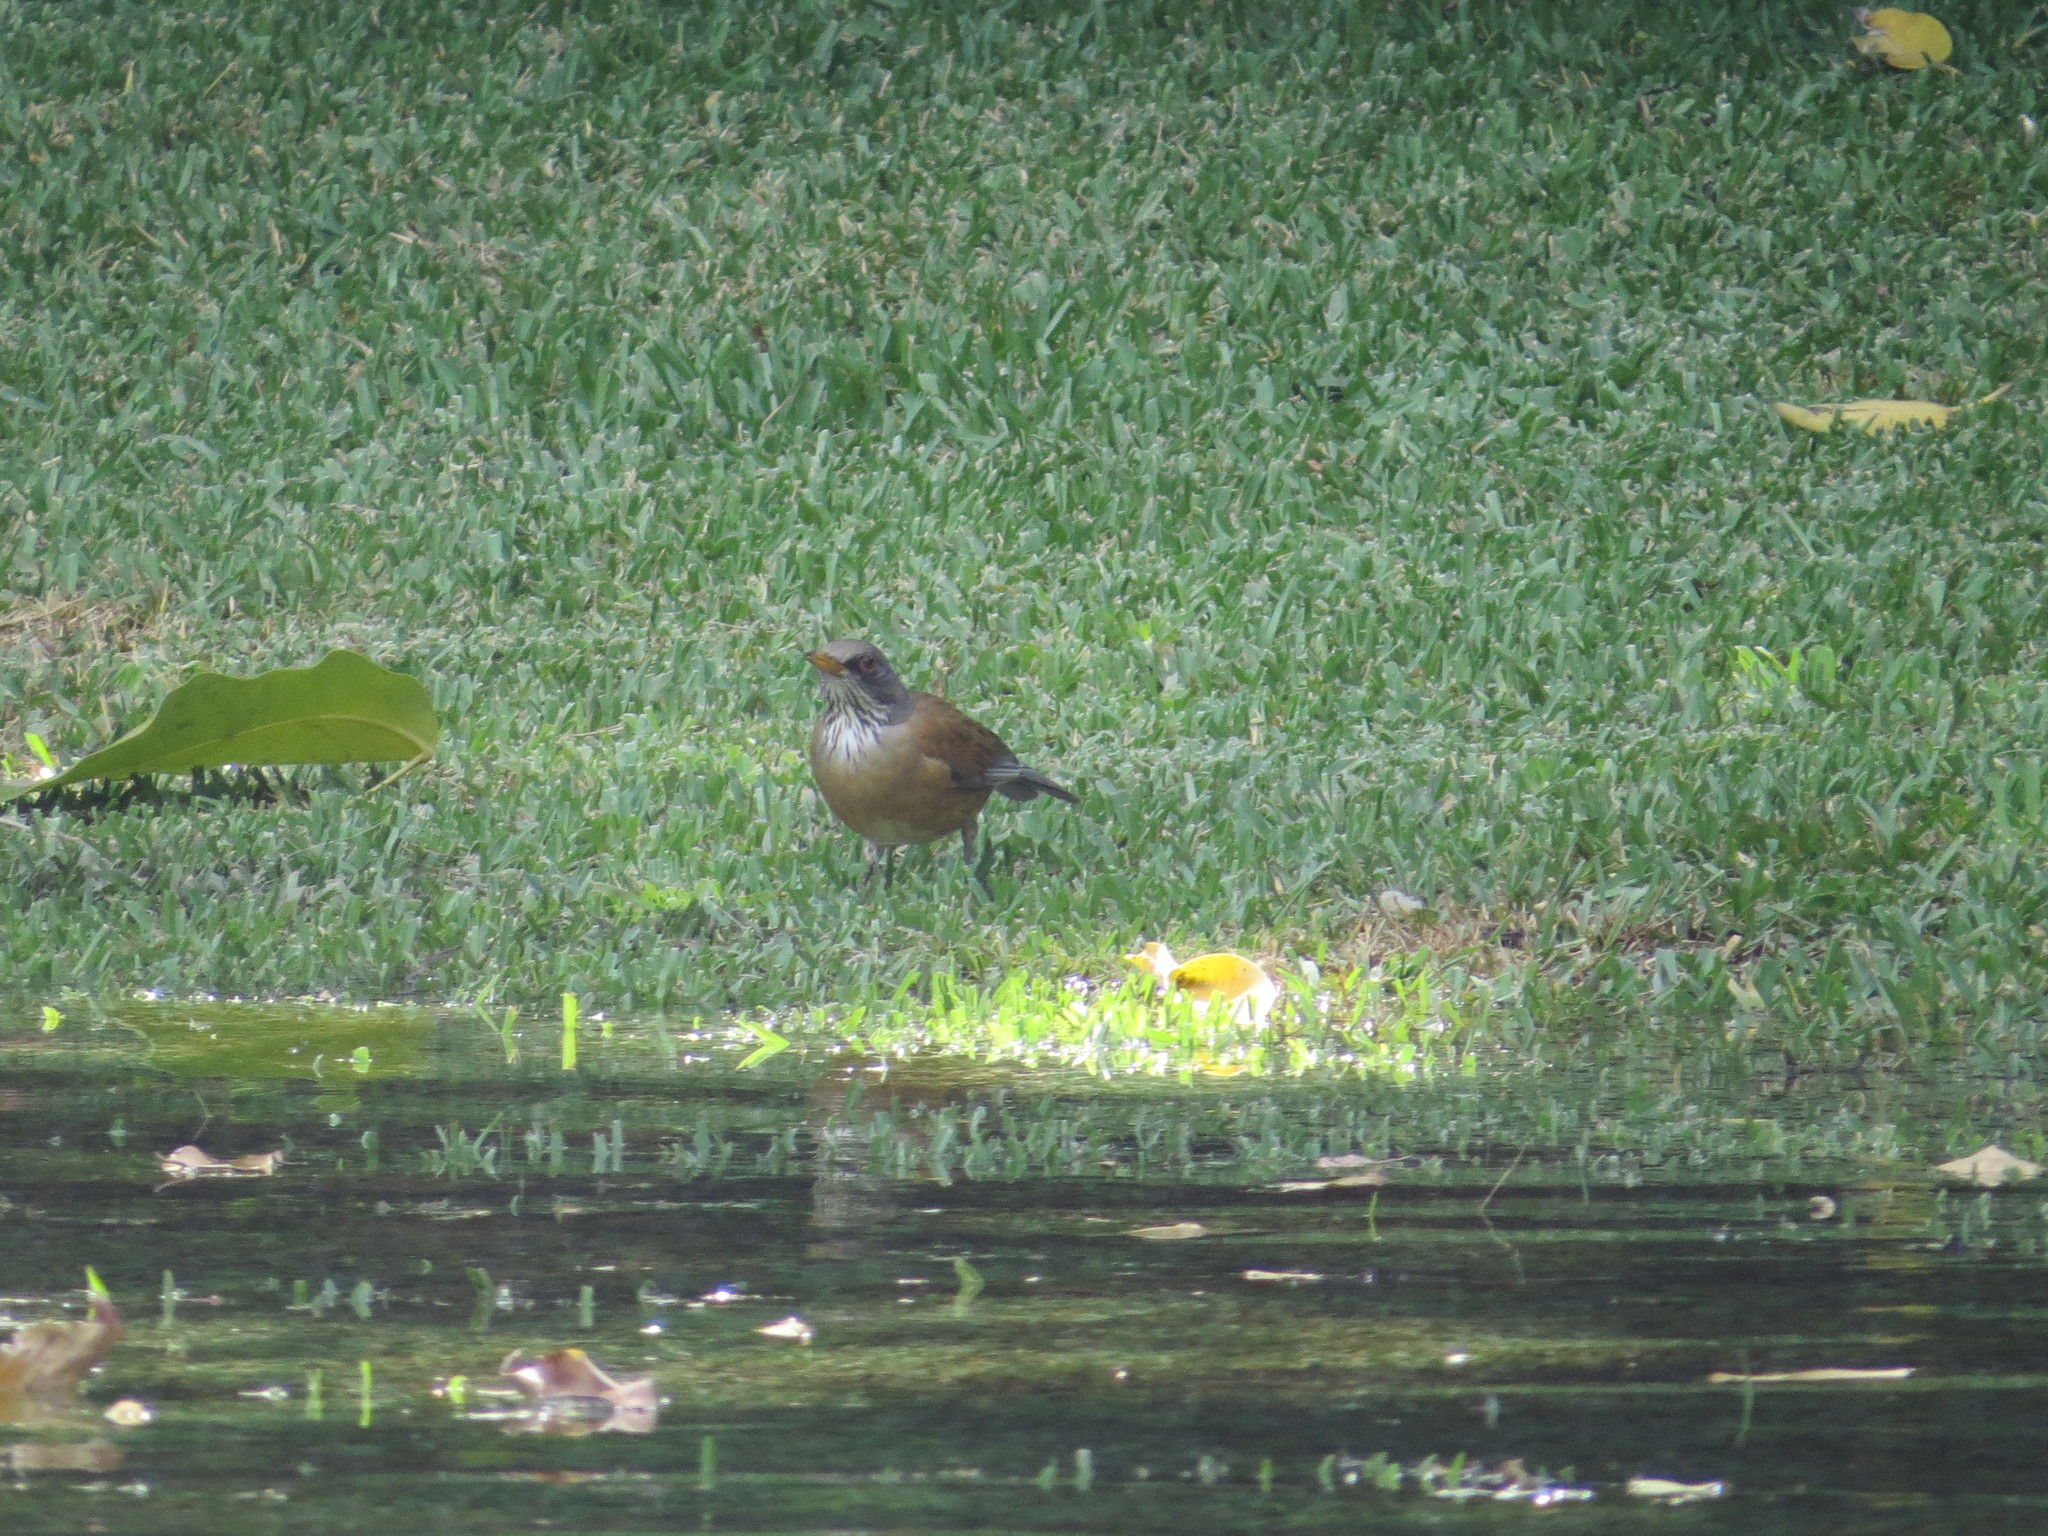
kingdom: Animalia
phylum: Chordata
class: Aves
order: Passeriformes
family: Turdidae
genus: Turdus
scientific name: Turdus rufopalliatus
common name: Rufous-backed robin
